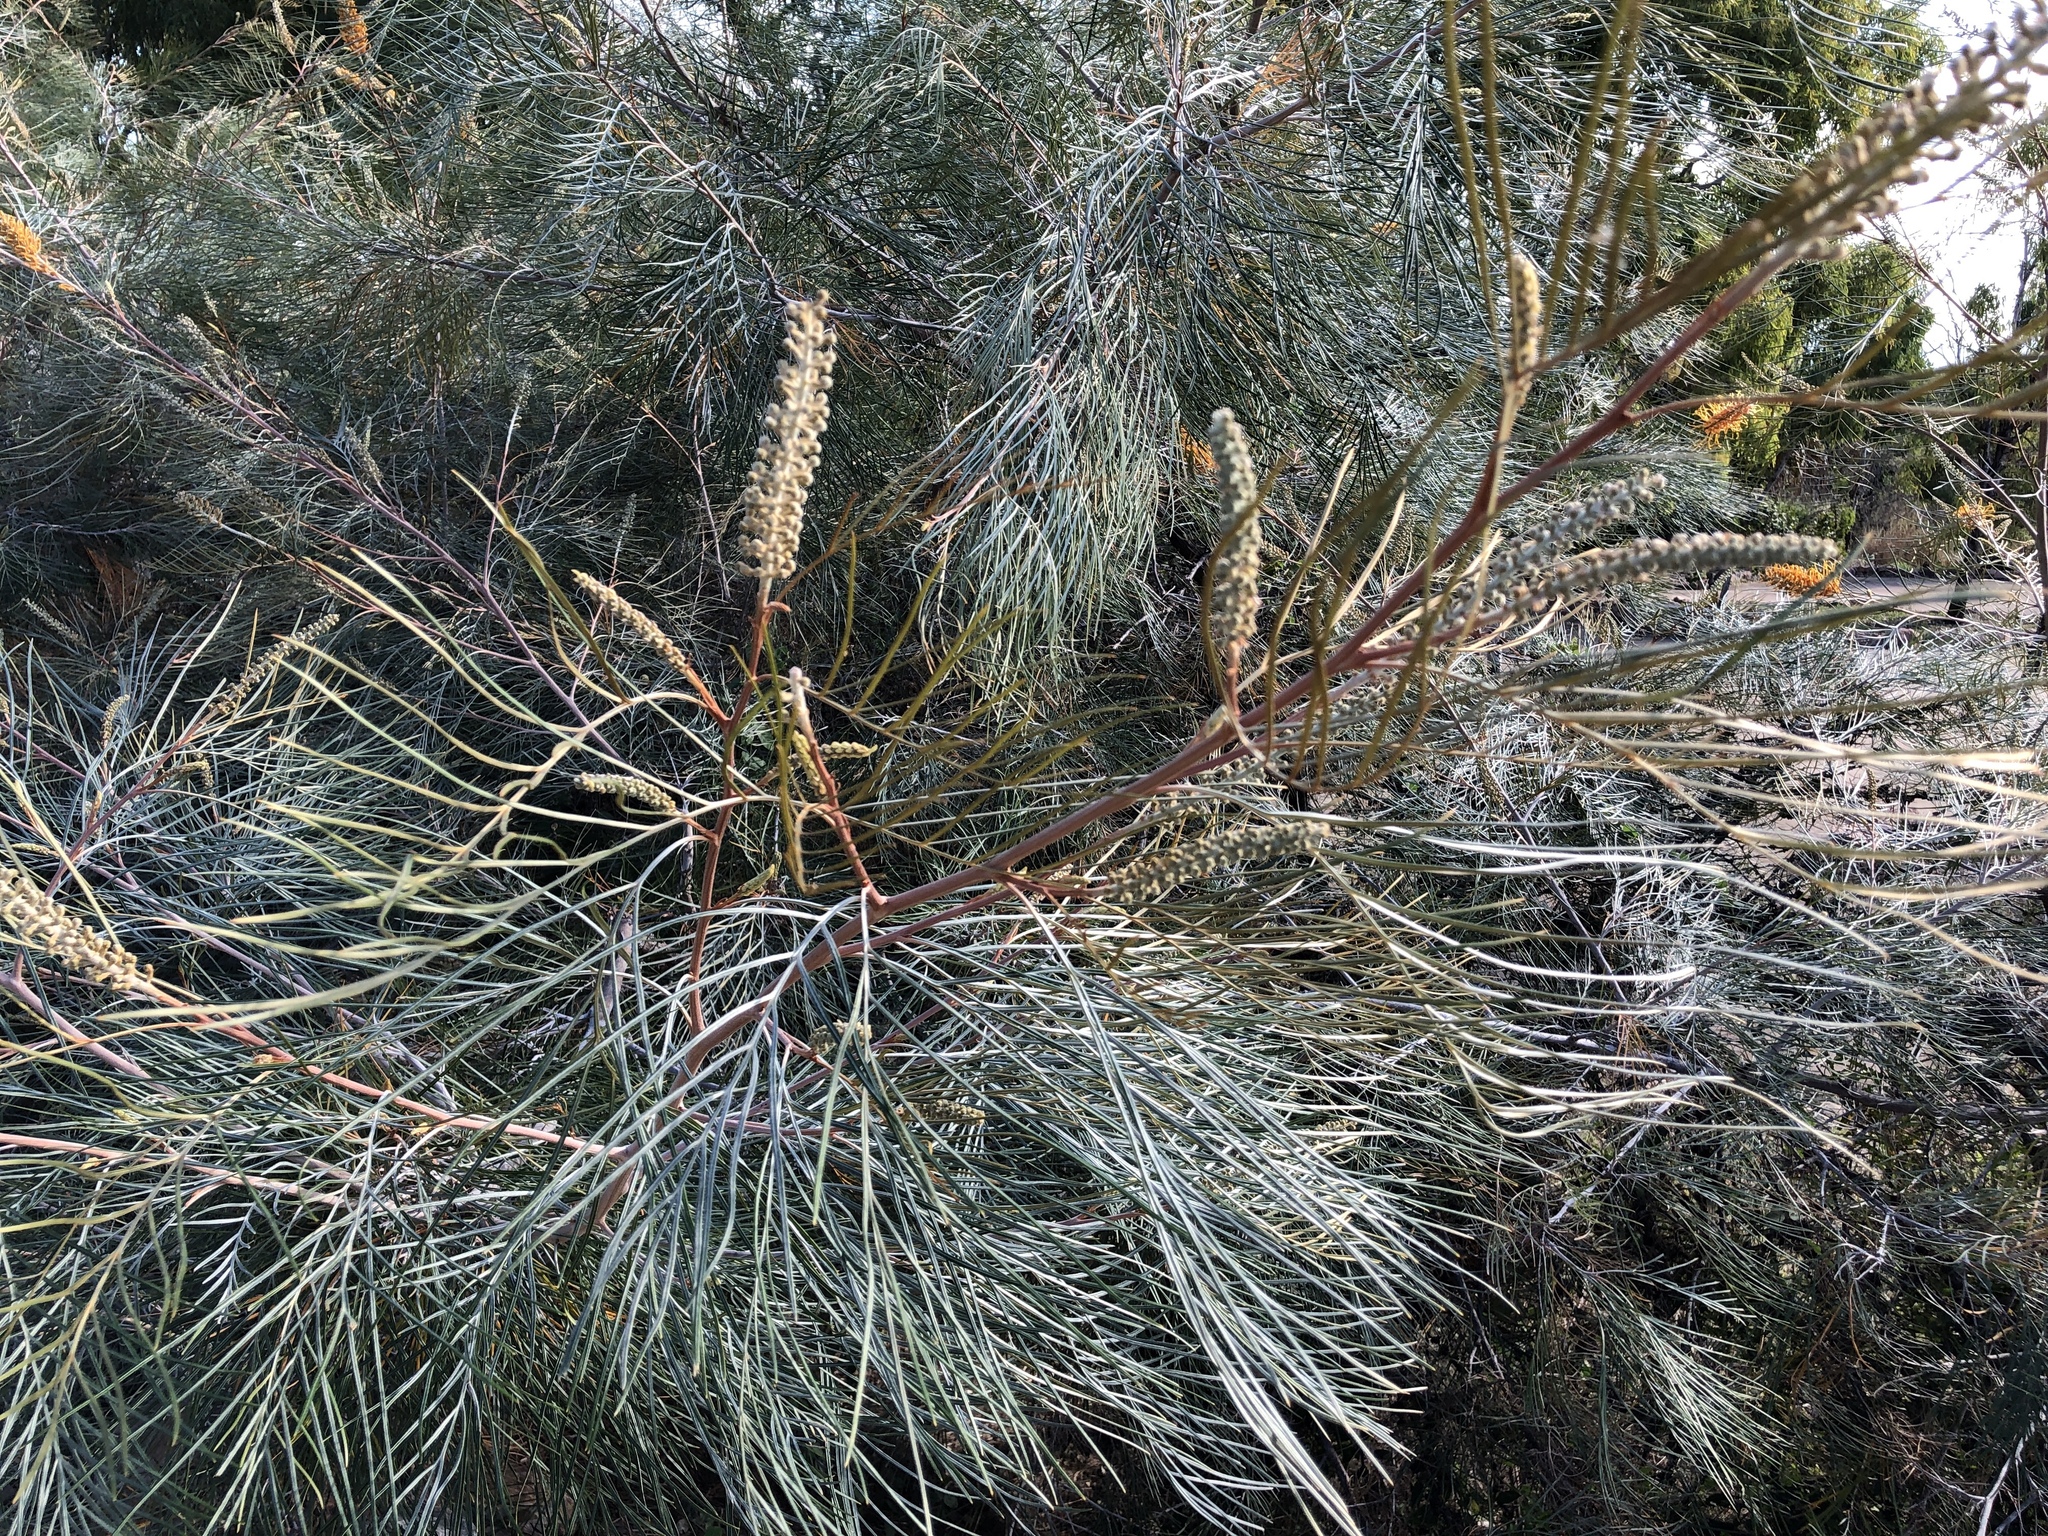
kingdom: Plantae
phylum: Tracheophyta
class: Magnoliopsida
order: Proteales
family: Proteaceae
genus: Grevillea
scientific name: Grevillea pteridifolia
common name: Golden grevillea
